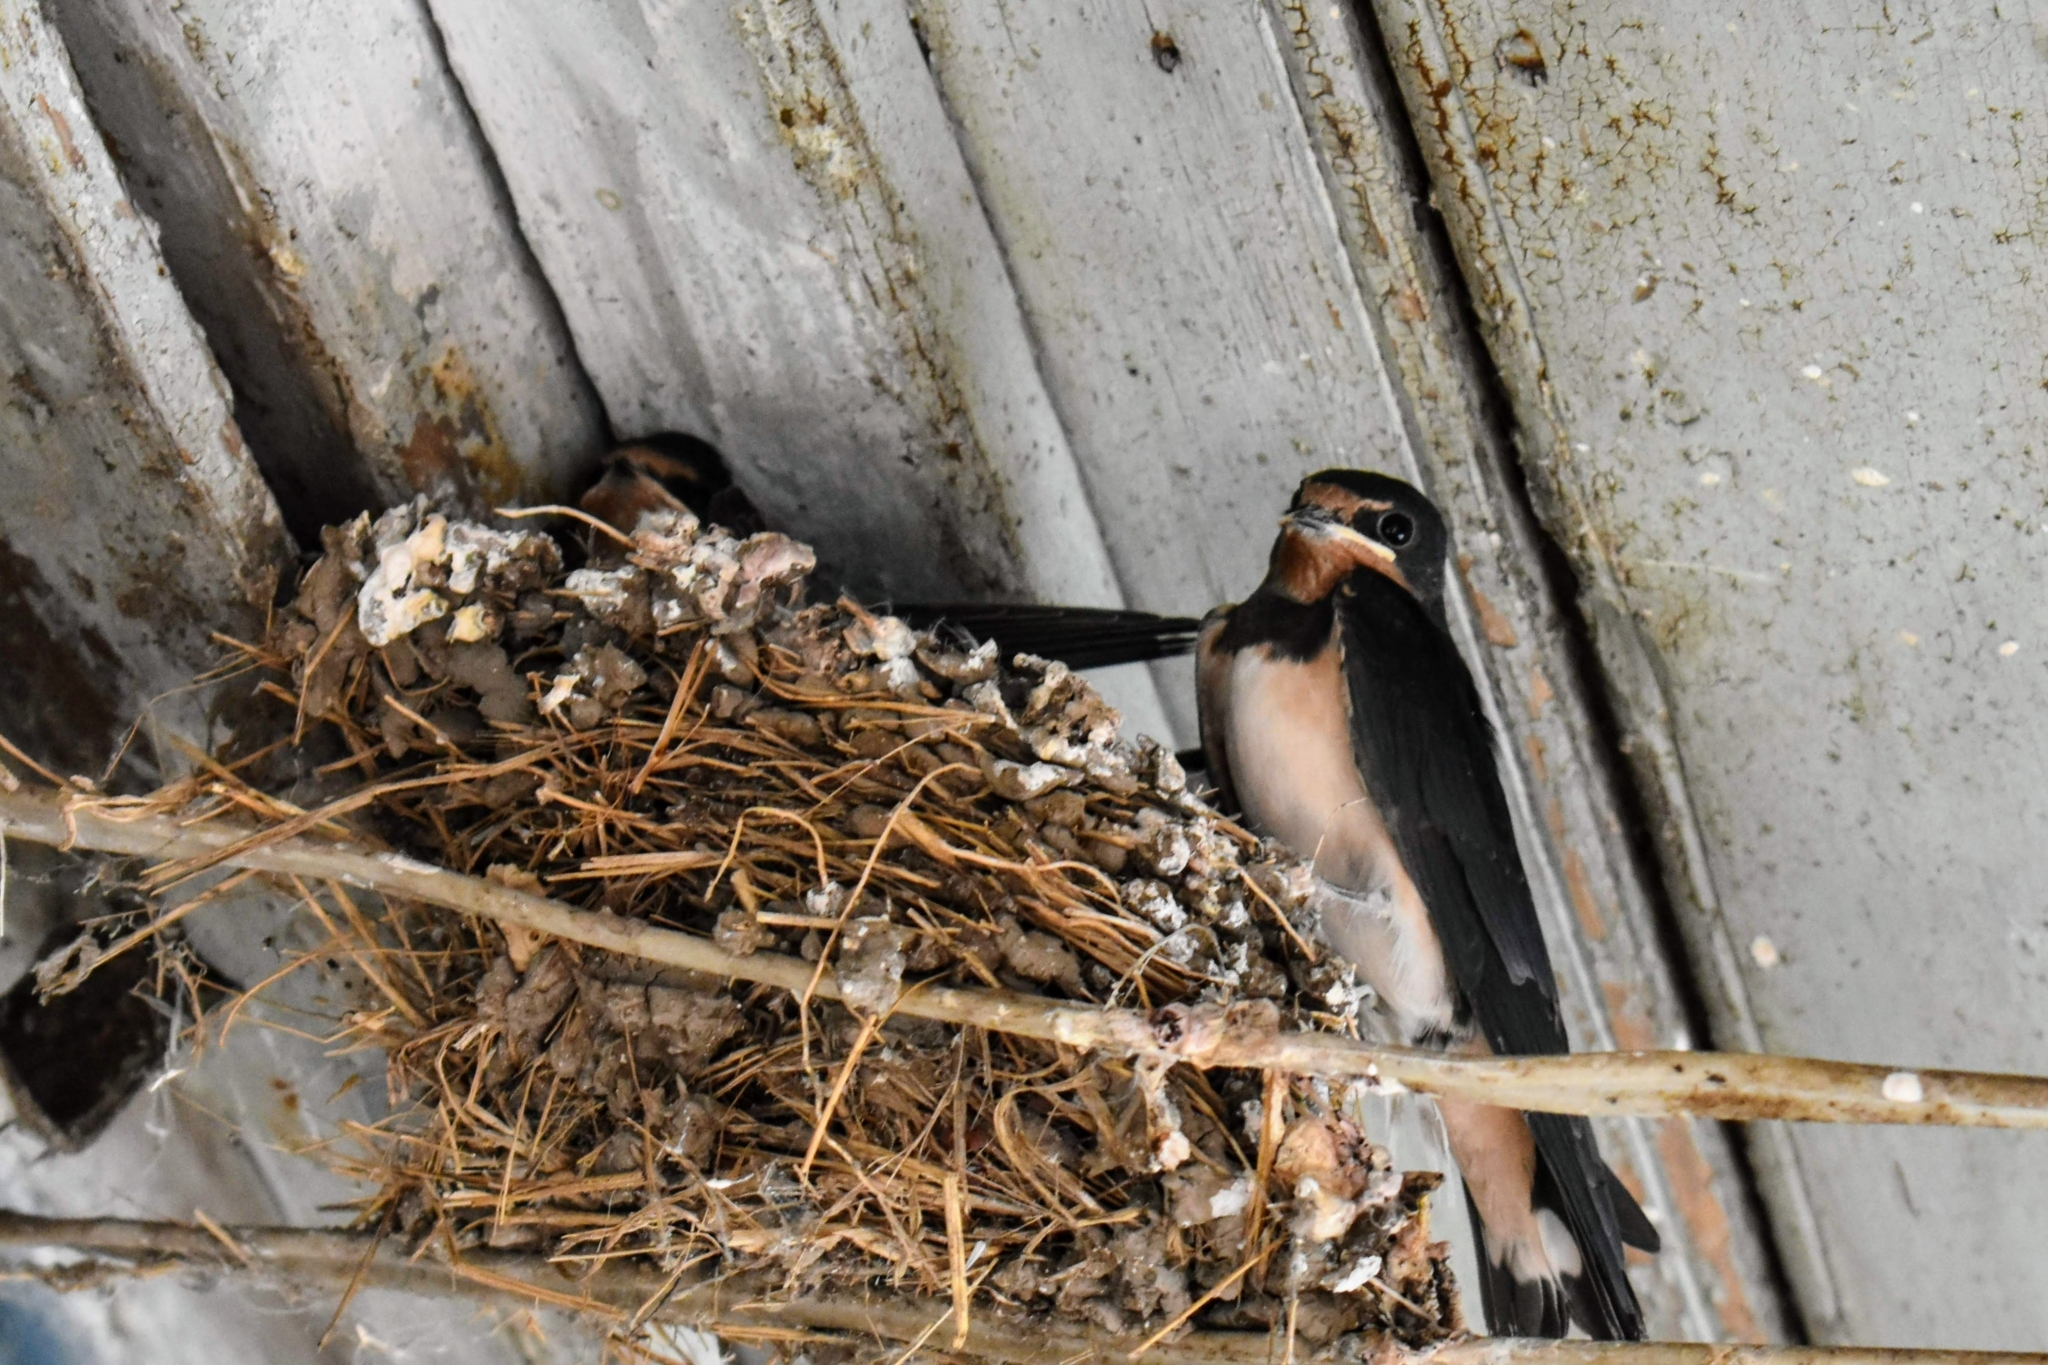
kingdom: Animalia
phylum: Chordata
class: Aves
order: Passeriformes
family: Hirundinidae
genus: Hirundo
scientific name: Hirundo rustica
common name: Barn swallow
